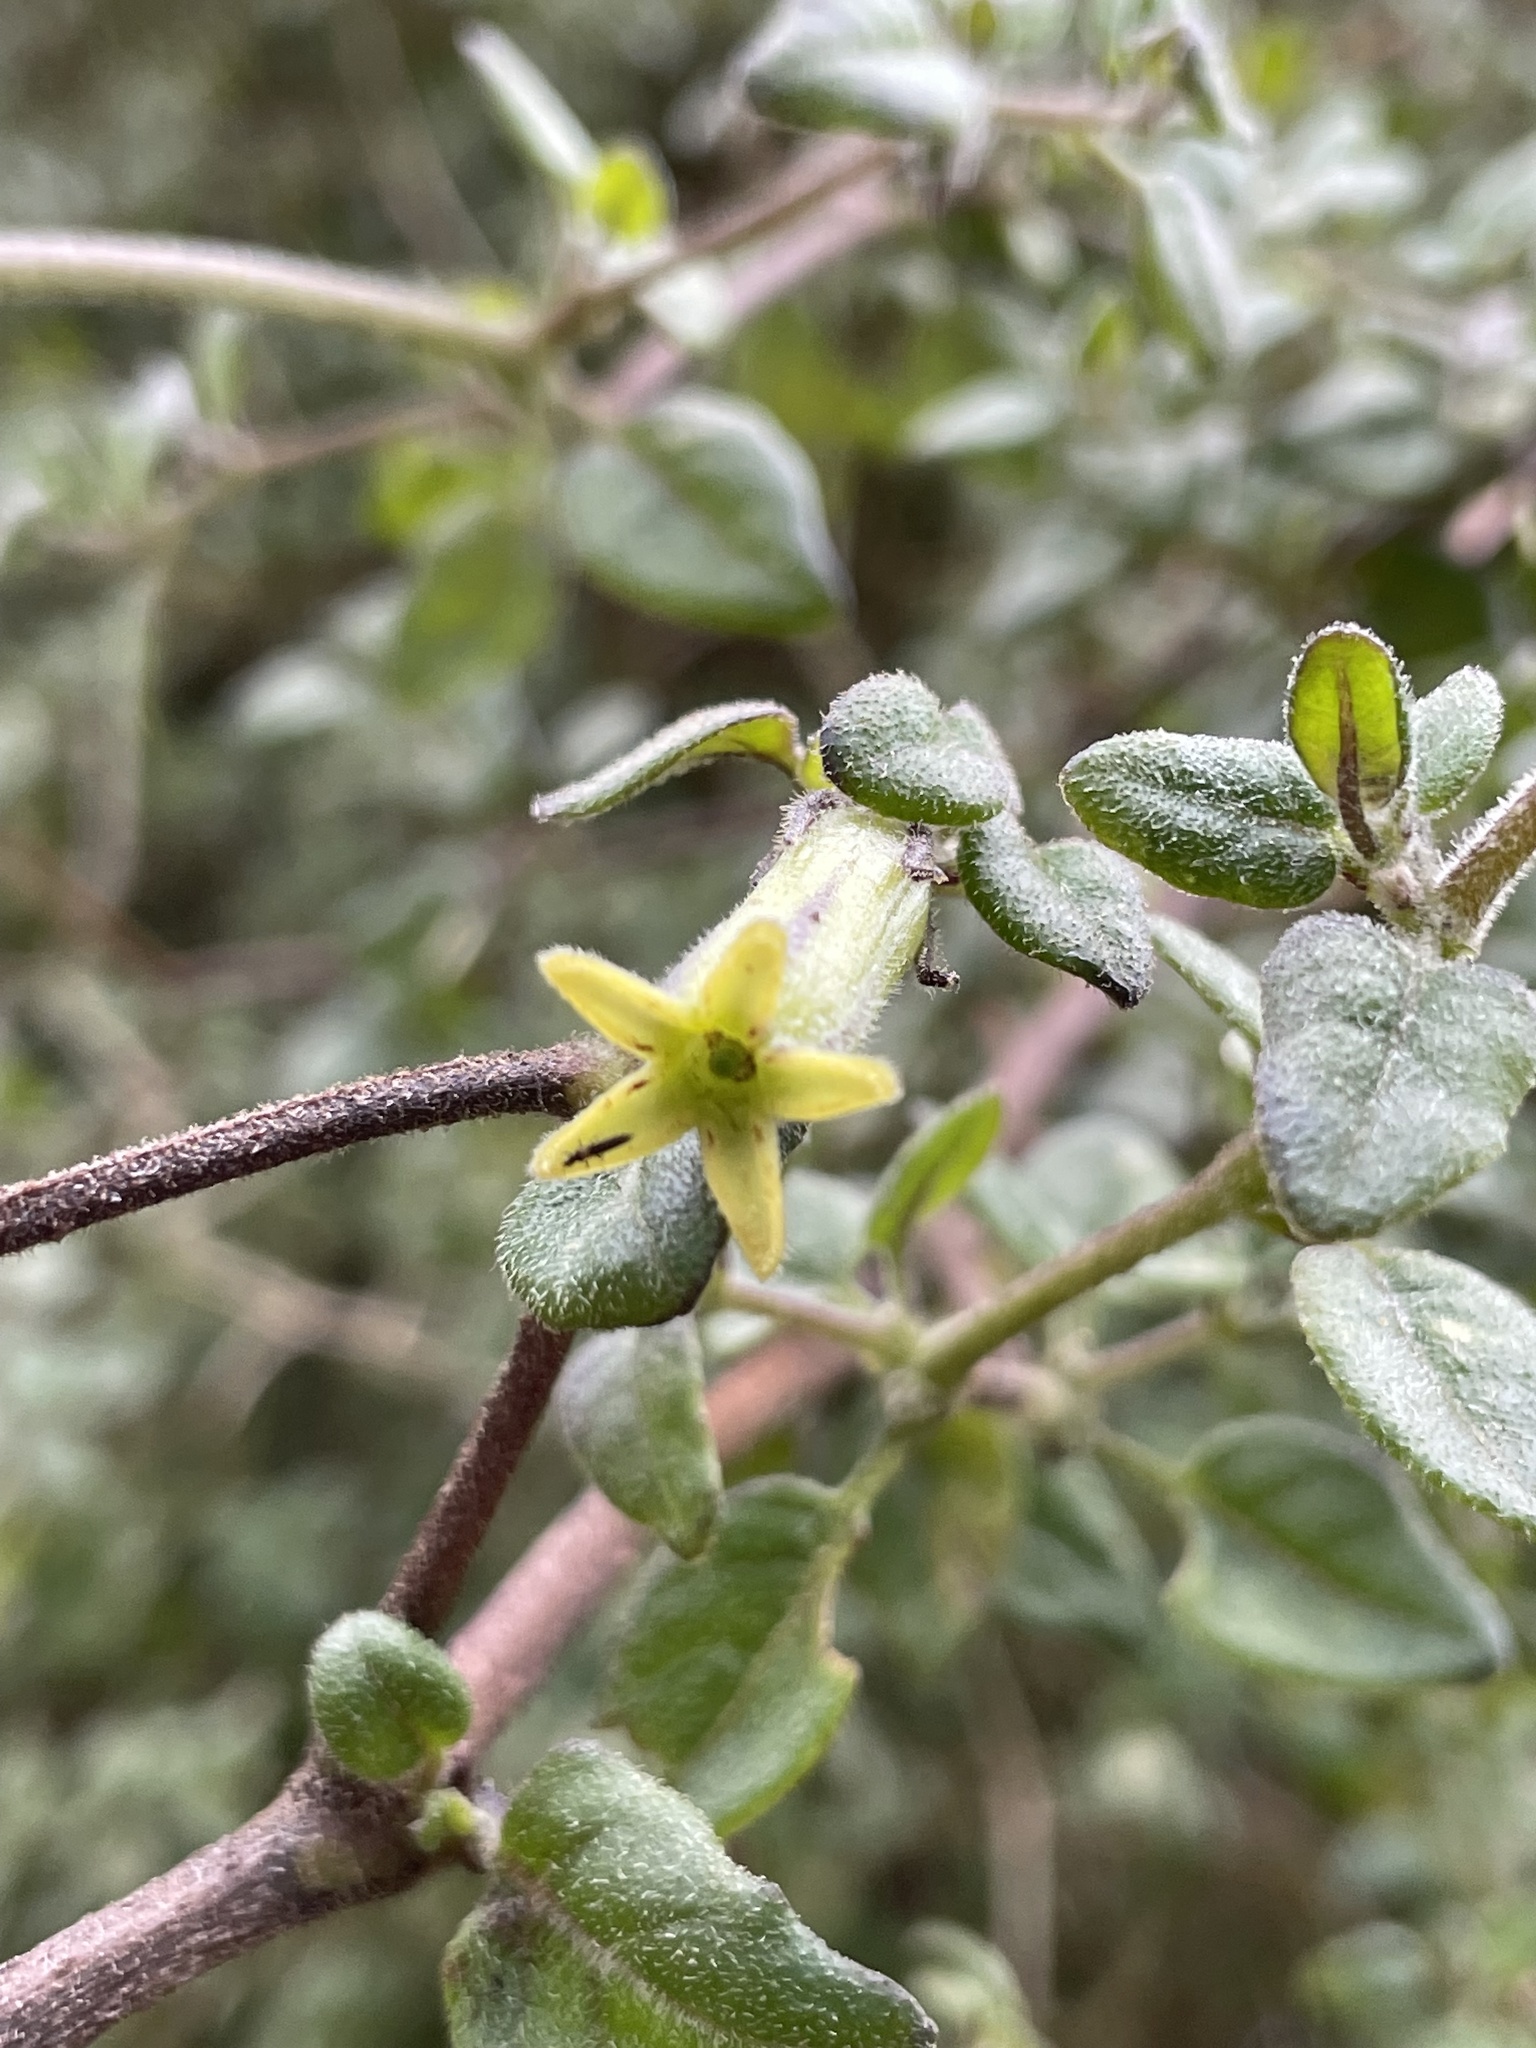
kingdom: Plantae
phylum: Tracheophyta
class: Magnoliopsida
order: Solanales
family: Solanaceae
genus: Salpichroa
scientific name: Salpichroa diffusa
